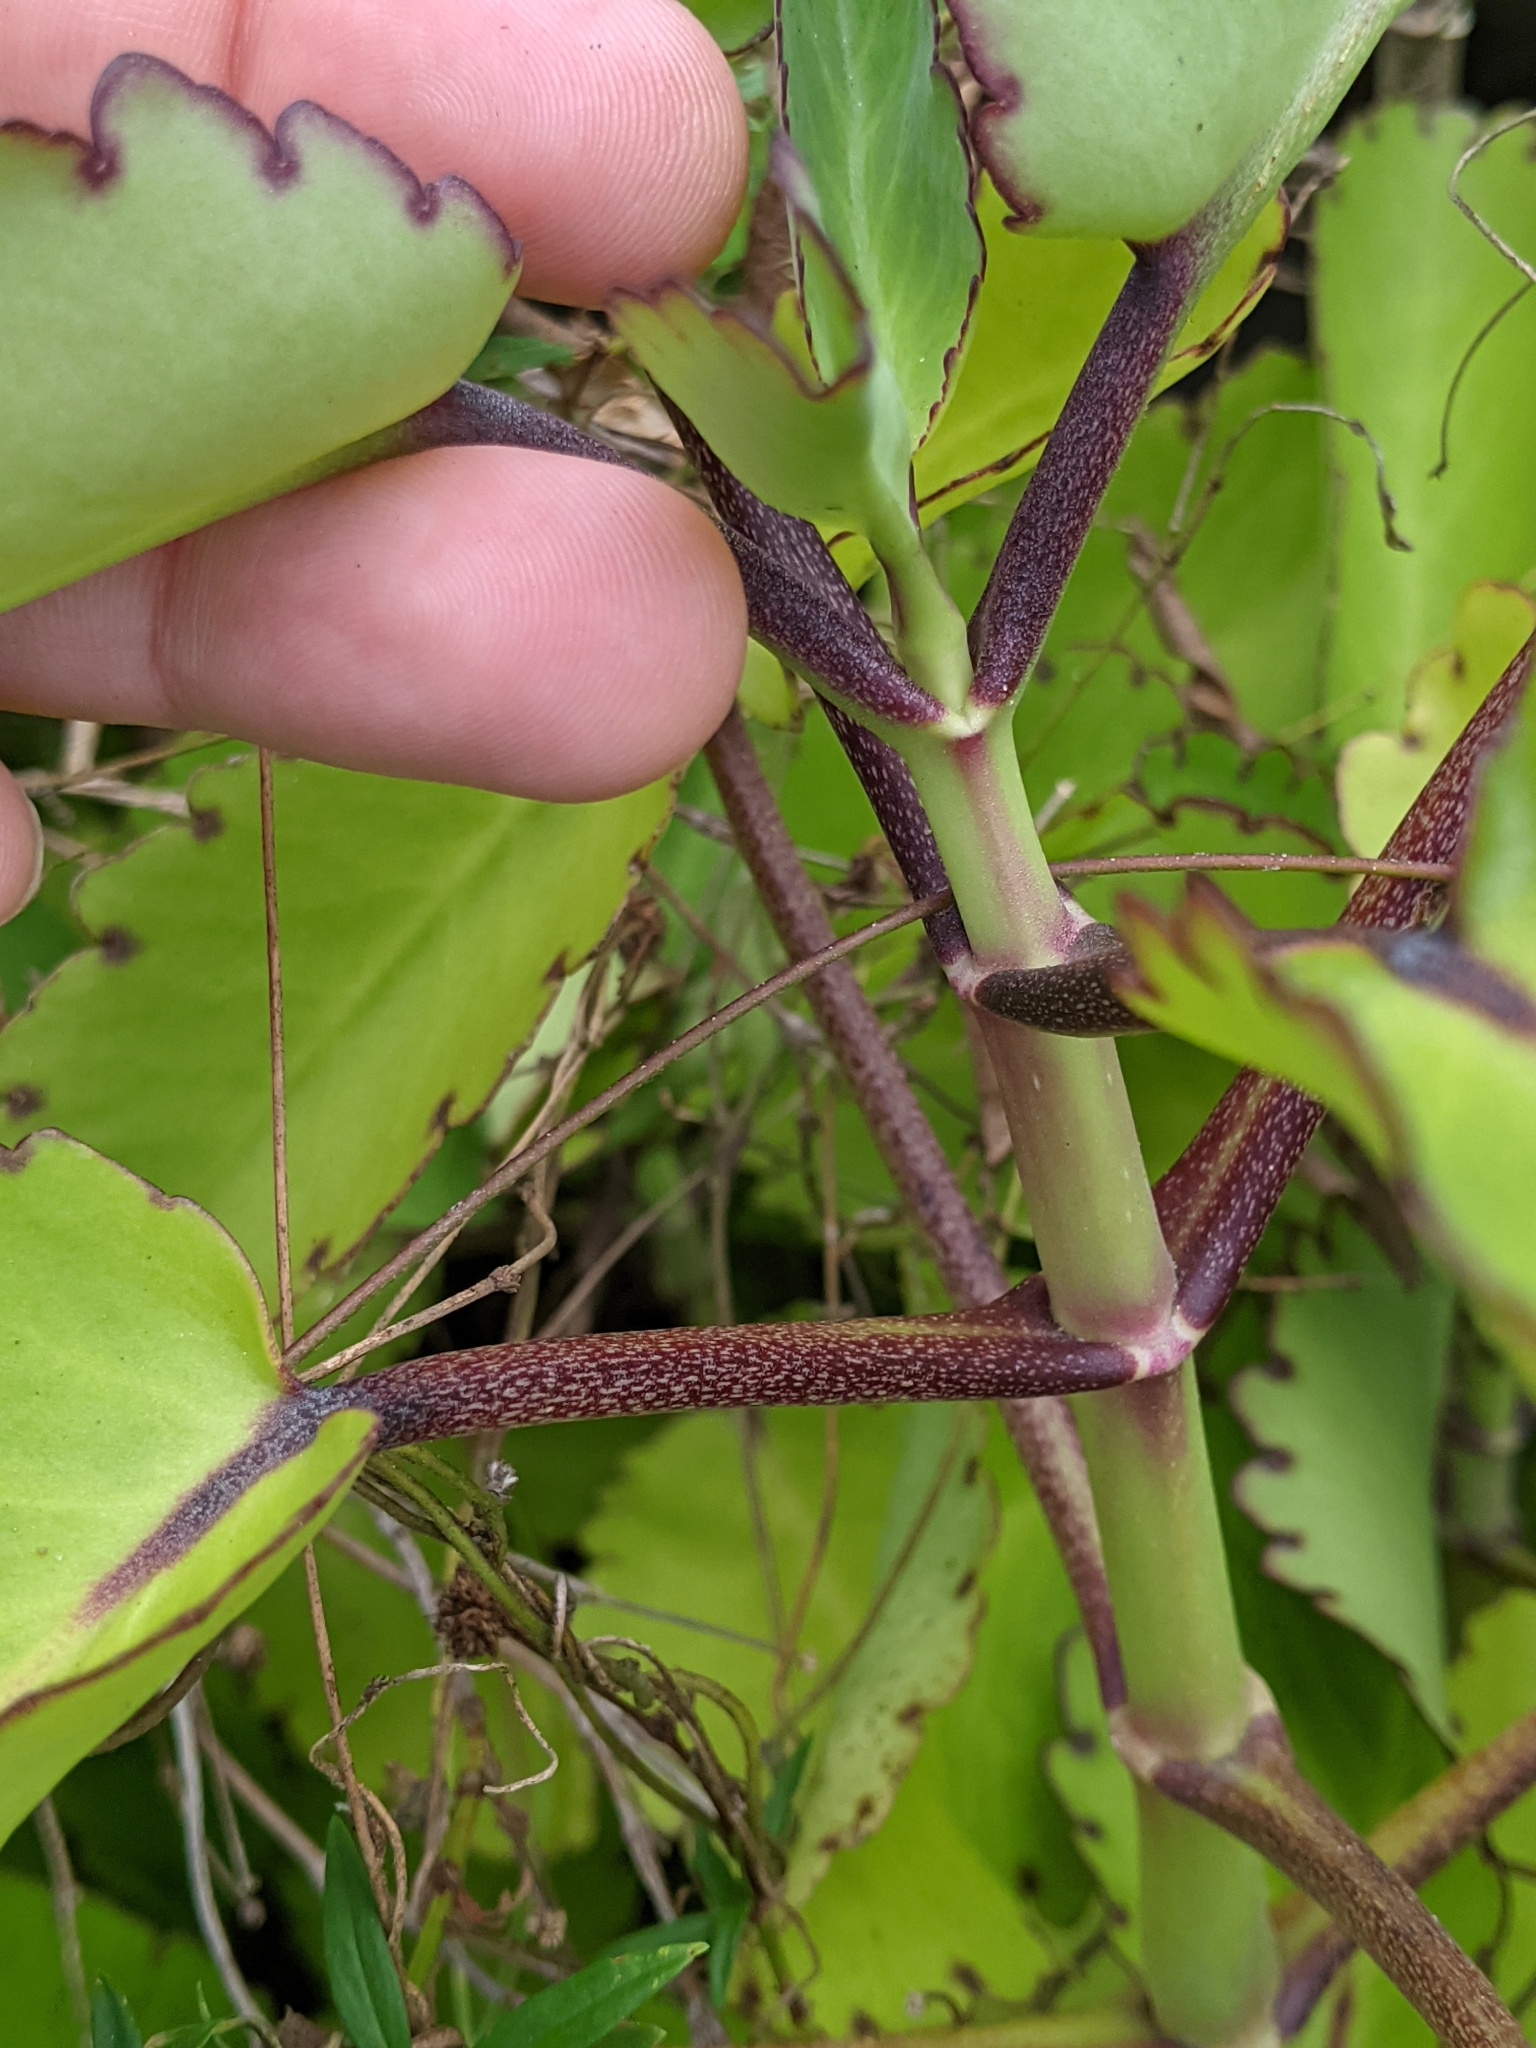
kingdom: Plantae
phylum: Tracheophyta
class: Magnoliopsida
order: Saxifragales
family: Crassulaceae
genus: Kalanchoe
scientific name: Kalanchoe pinnata
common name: Cathedral bells
